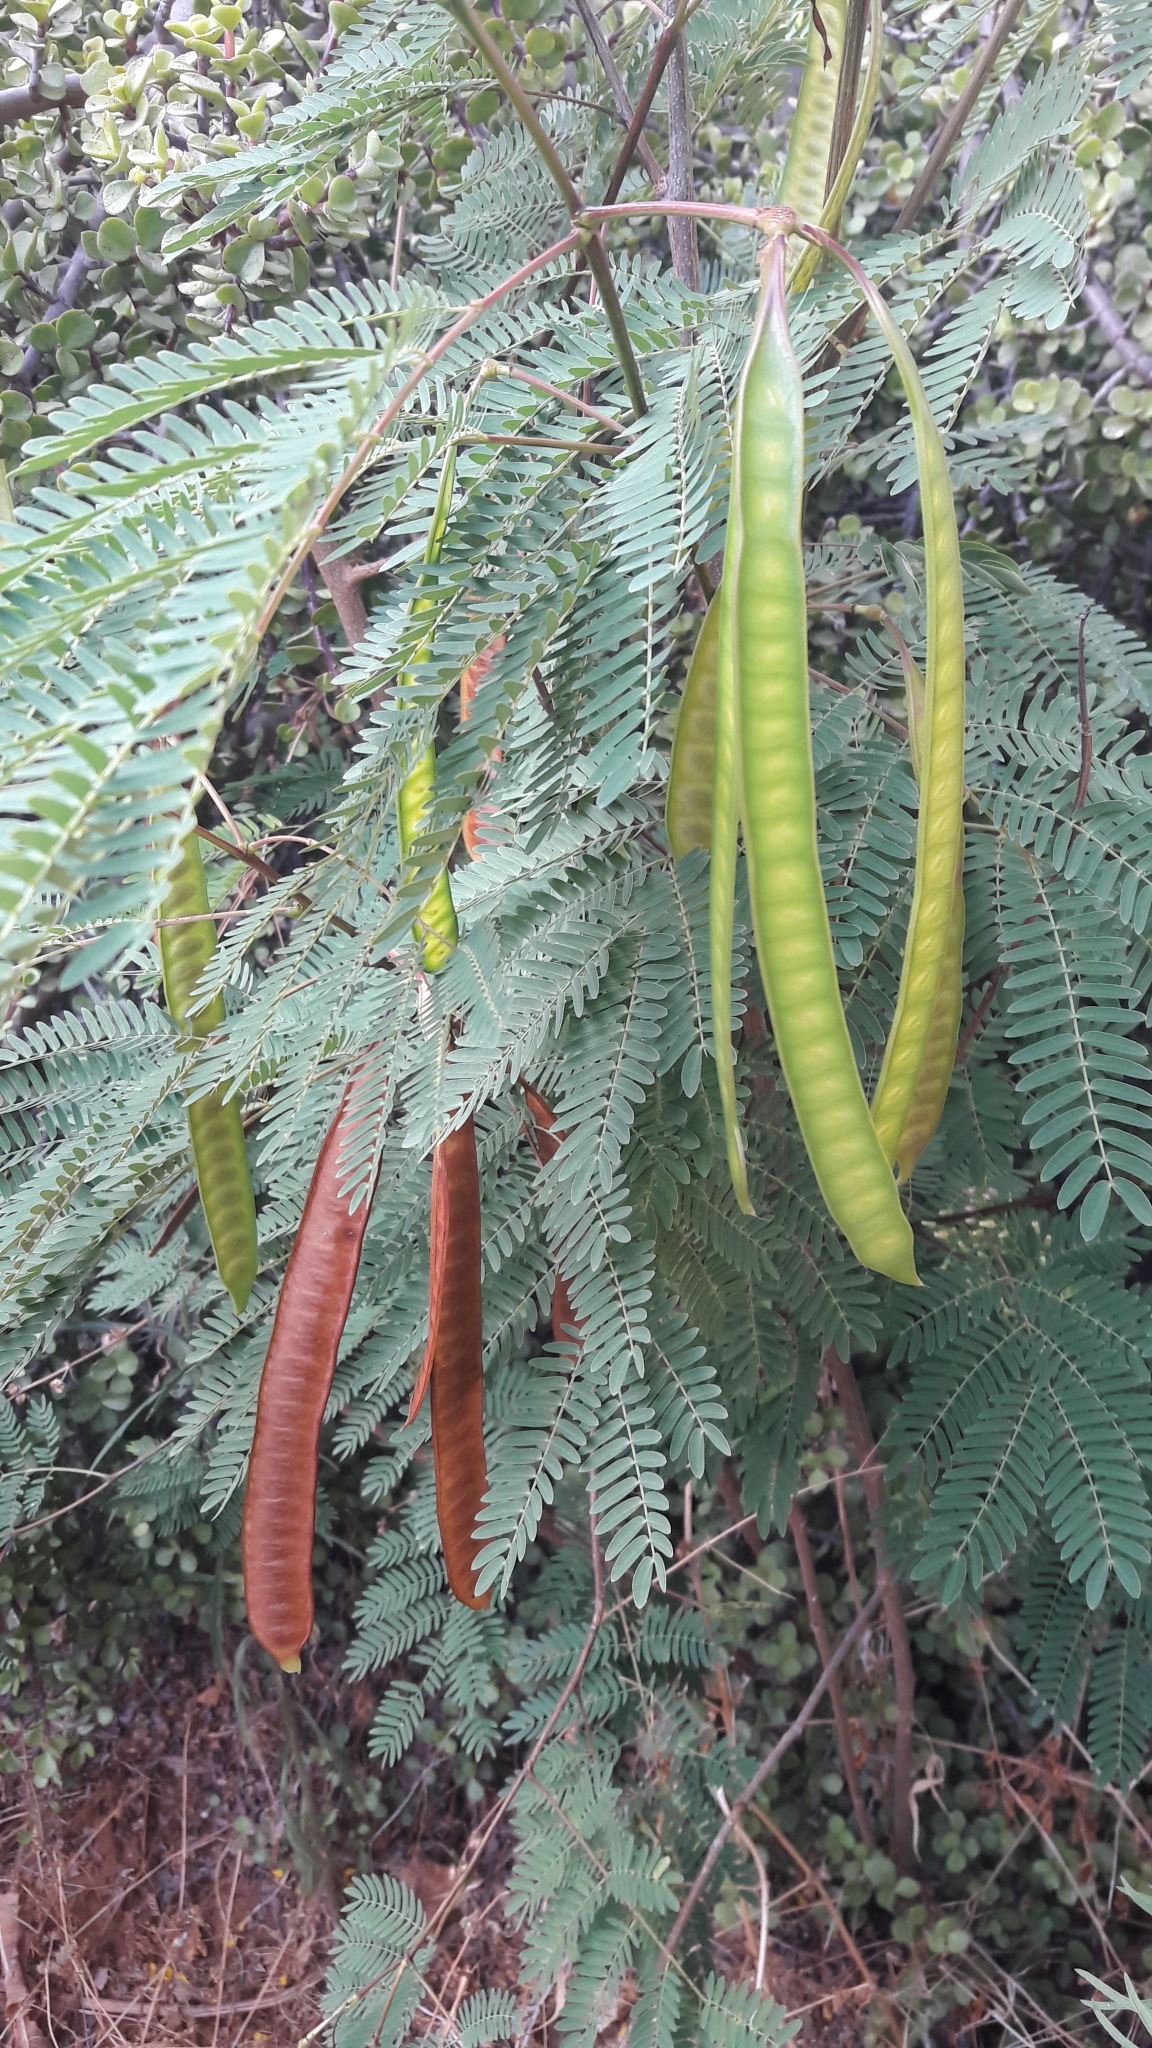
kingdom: Plantae
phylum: Tracheophyta
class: Magnoliopsida
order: Fabales
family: Fabaceae
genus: Leucaena
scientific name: Leucaena leucocephala
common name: White leadtree
